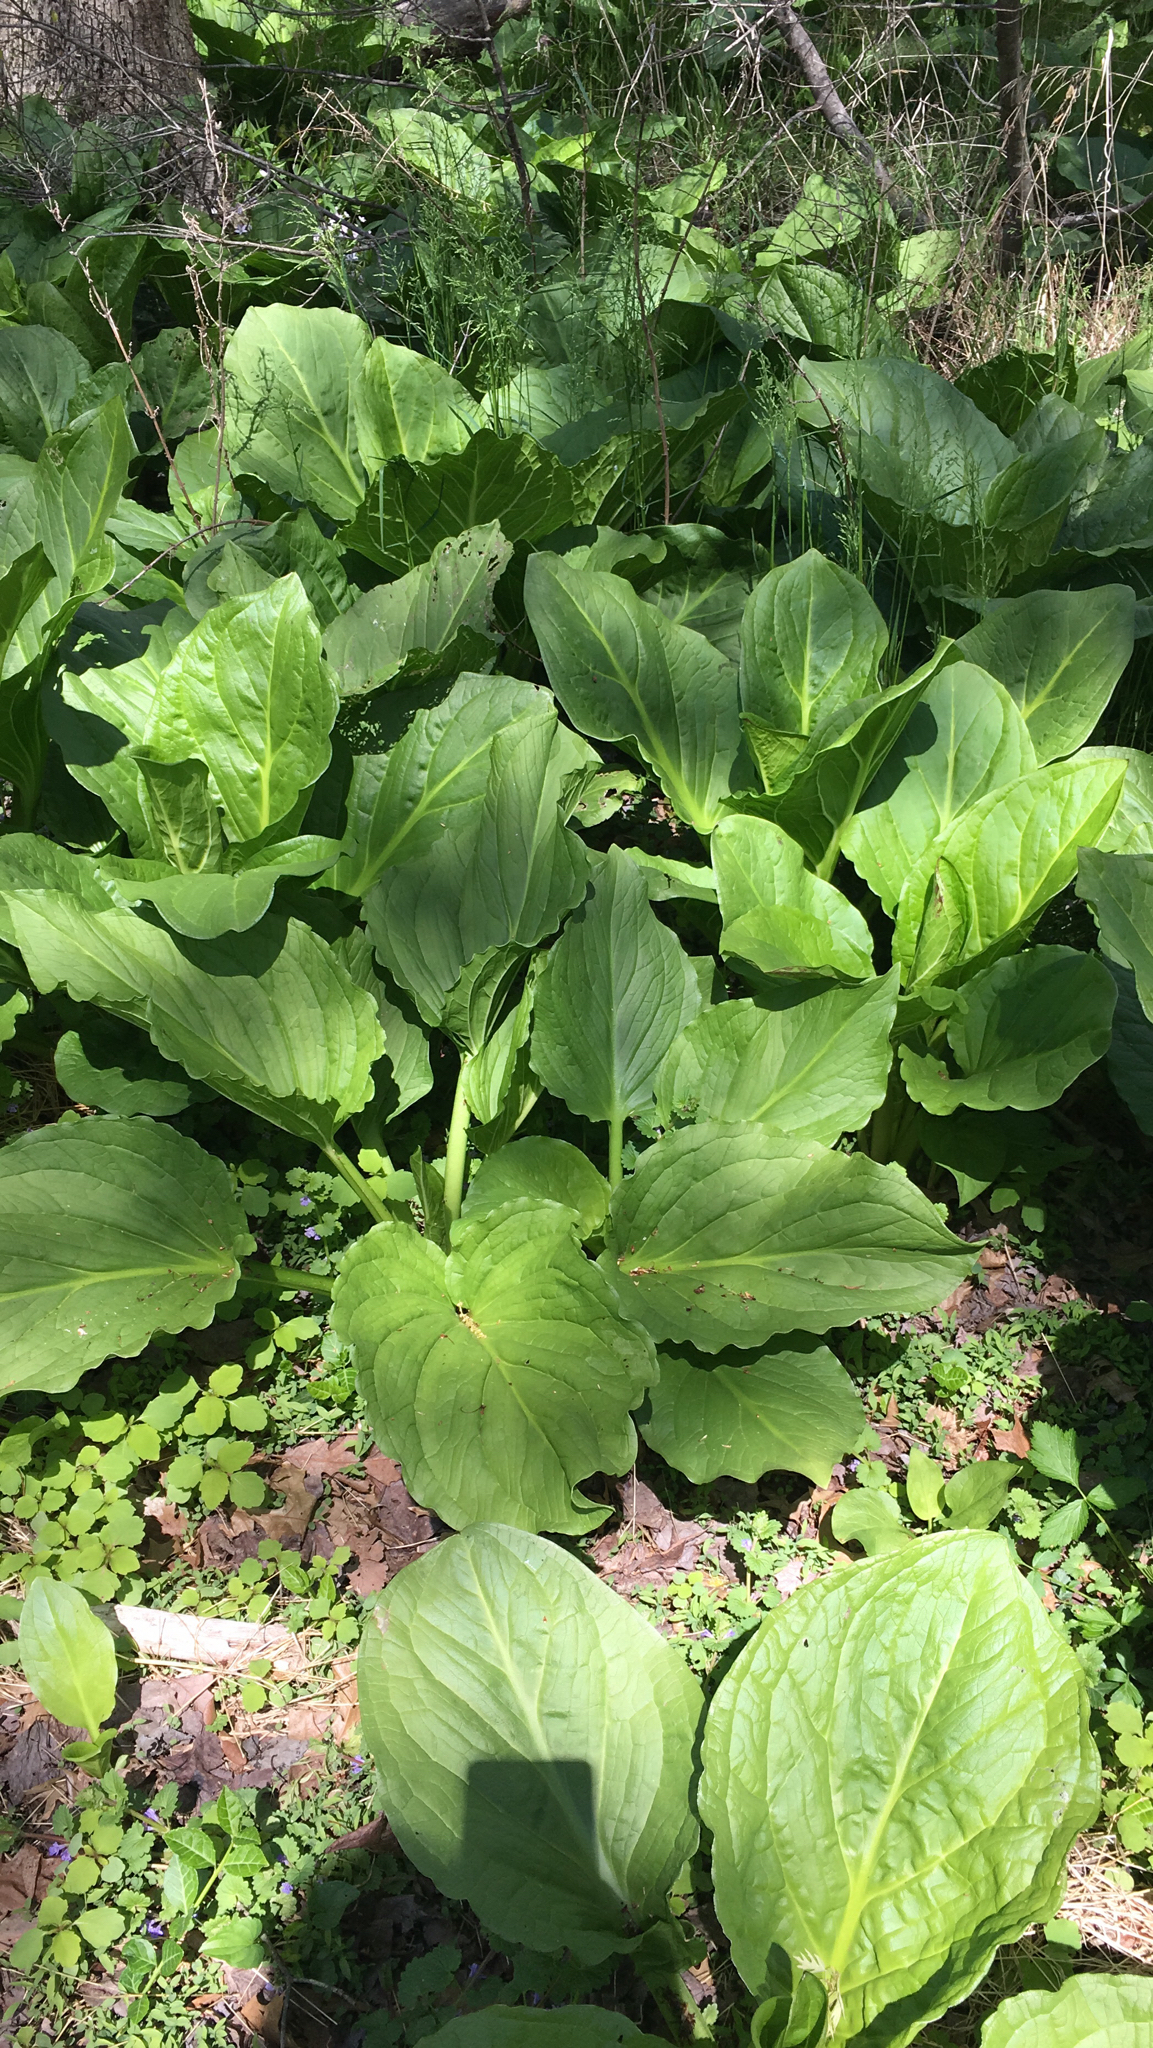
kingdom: Plantae
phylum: Tracheophyta
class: Liliopsida
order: Alismatales
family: Araceae
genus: Symplocarpus
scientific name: Symplocarpus foetidus
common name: Eastern skunk cabbage
